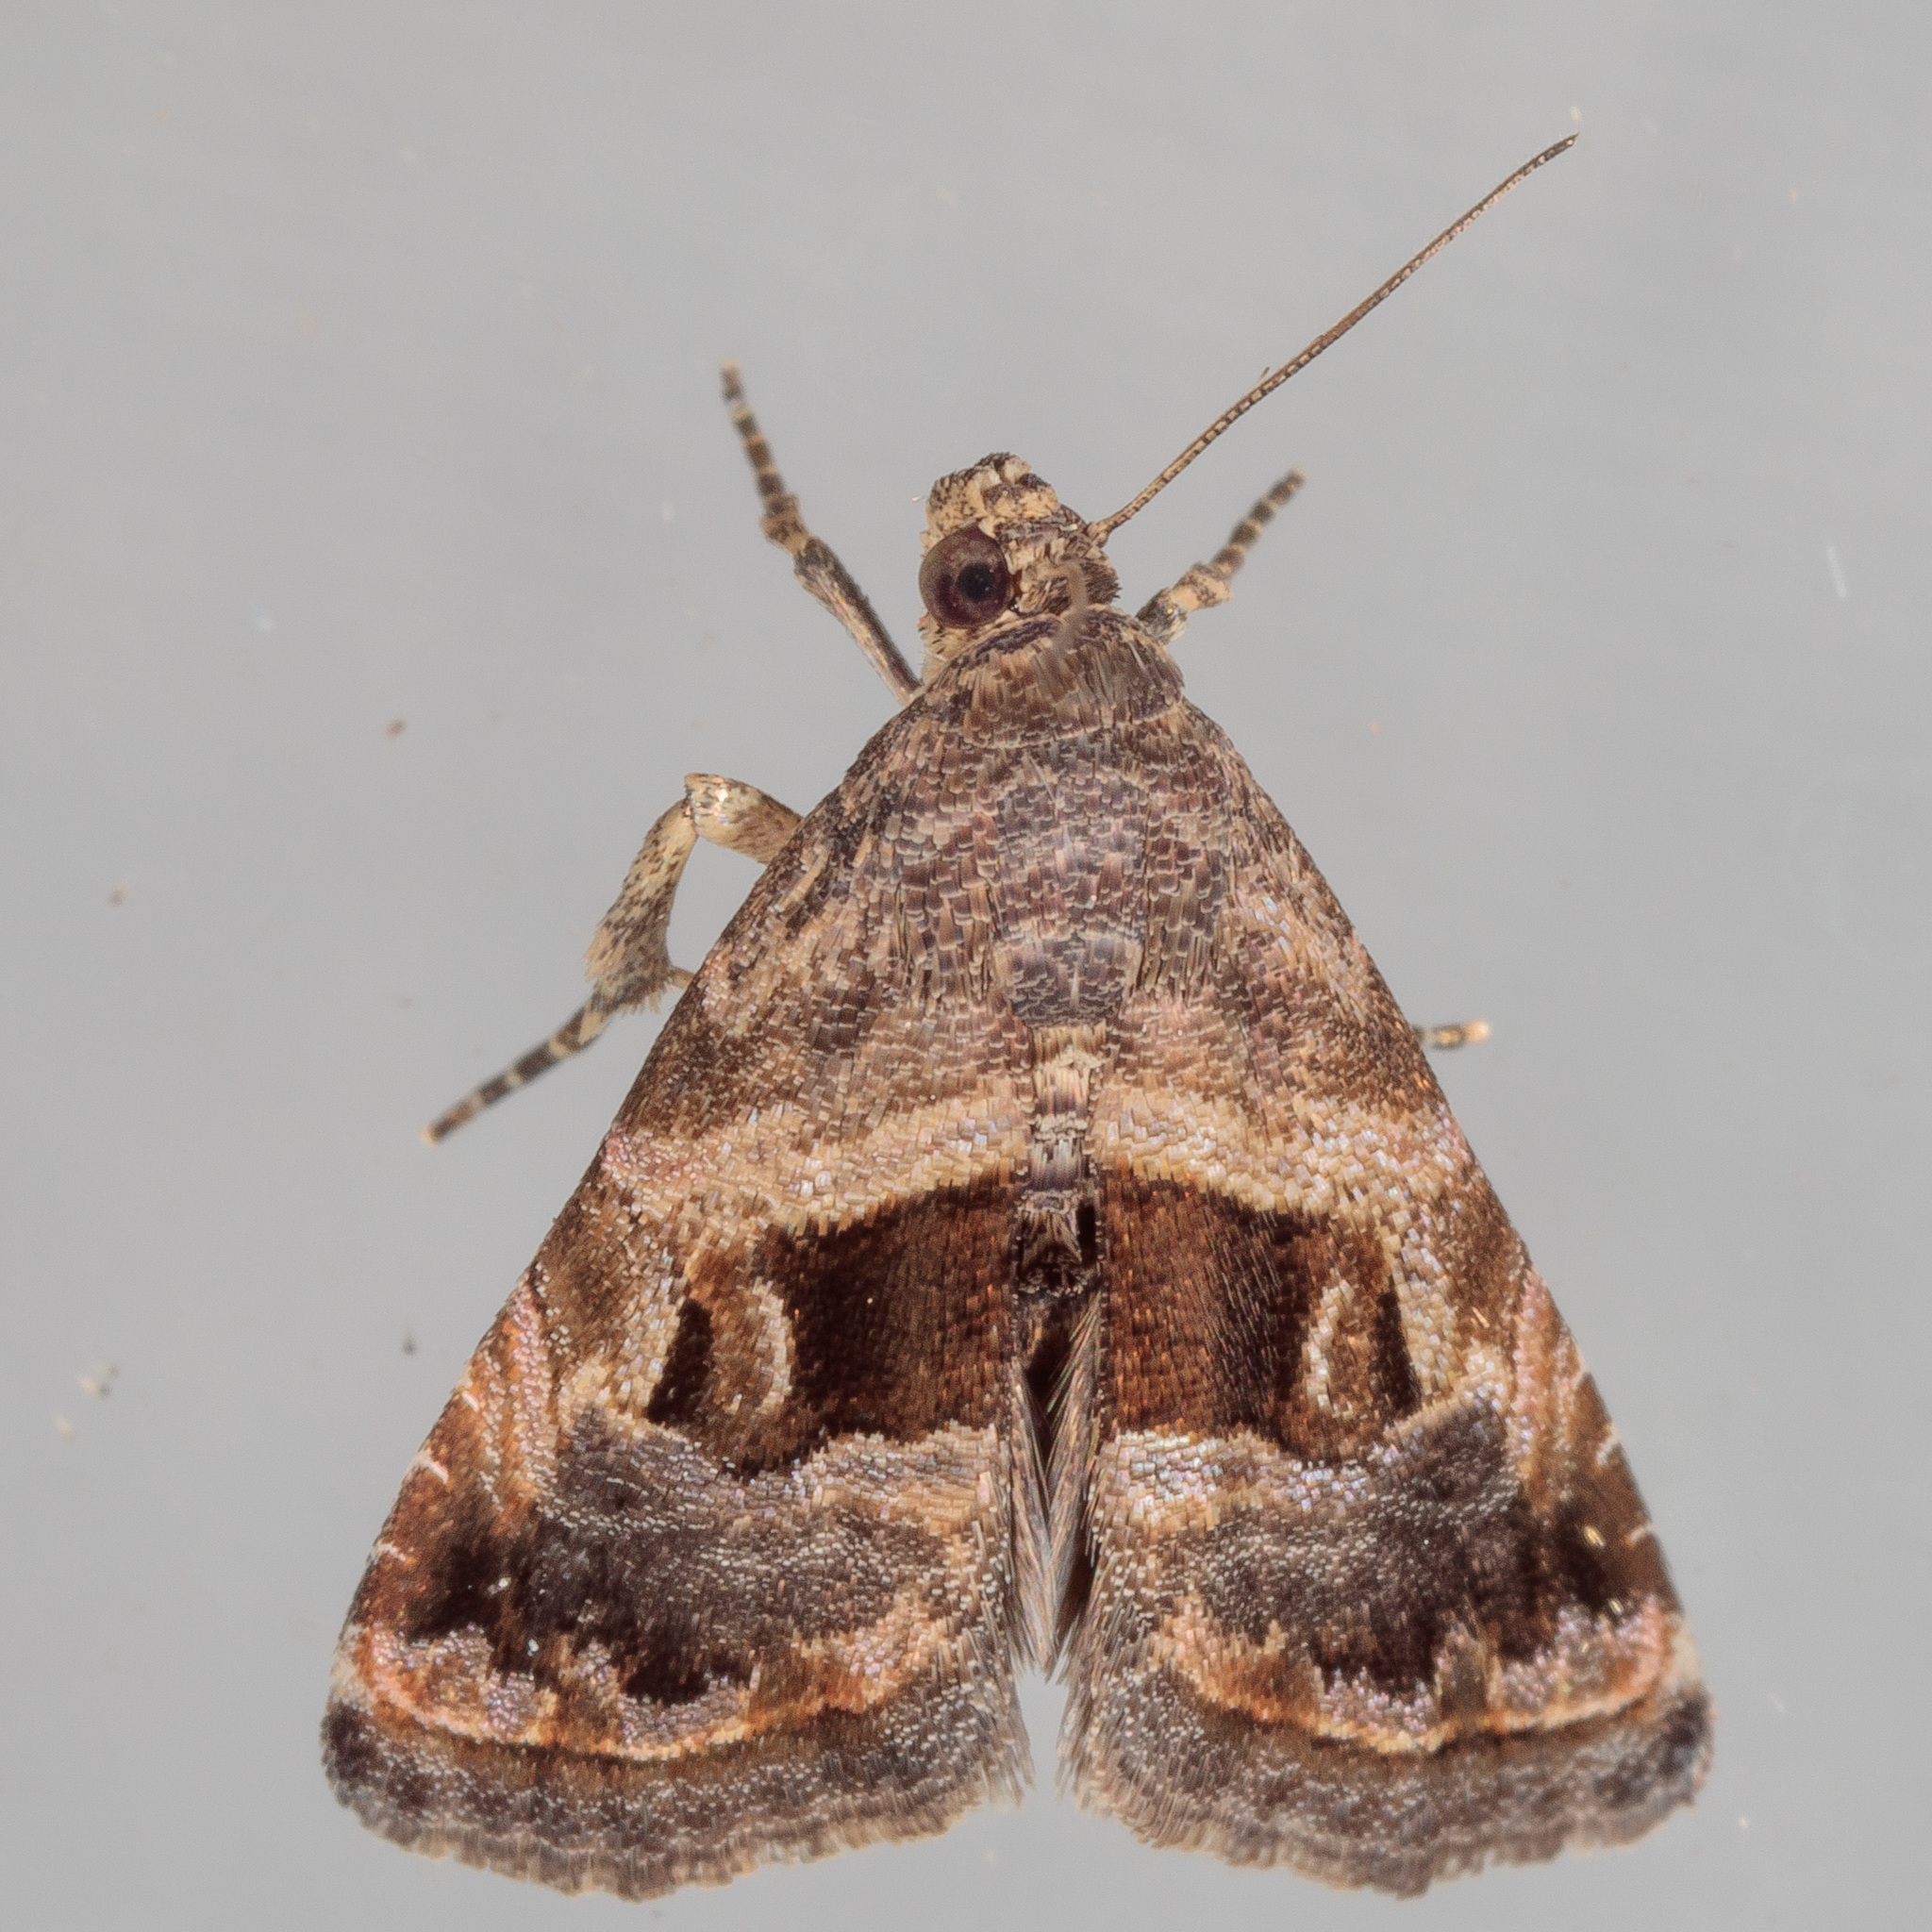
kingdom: Animalia
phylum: Arthropoda
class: Insecta
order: Lepidoptera
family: Noctuidae
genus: Tripudia
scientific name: Tripudia quadrifera
